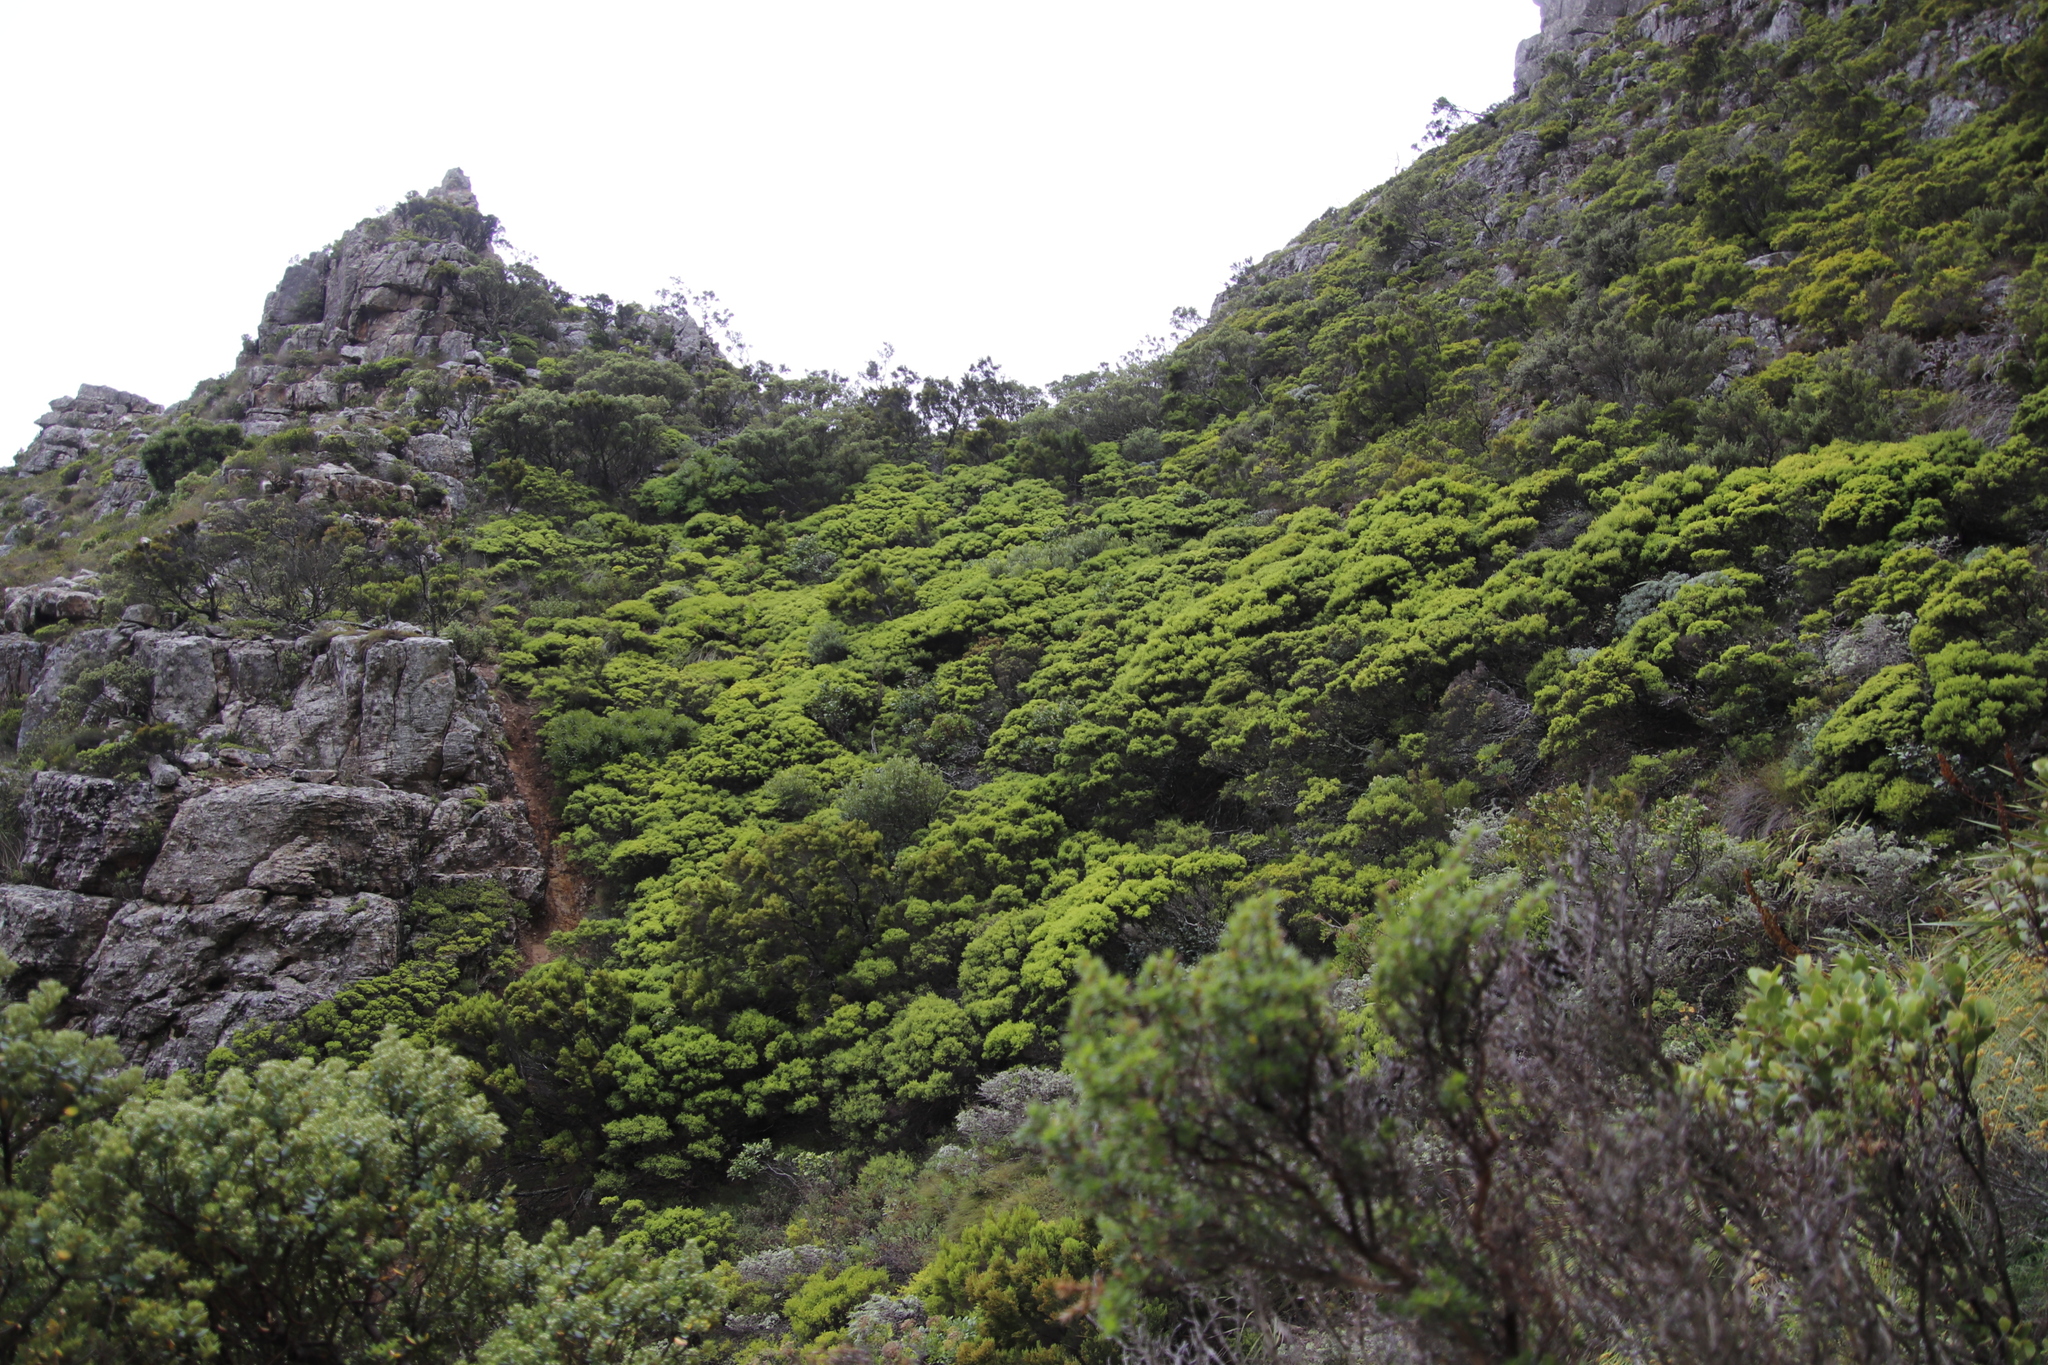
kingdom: Plantae
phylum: Tracheophyta
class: Magnoliopsida
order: Ericales
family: Ericaceae
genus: Erica
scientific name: Erica tristis
